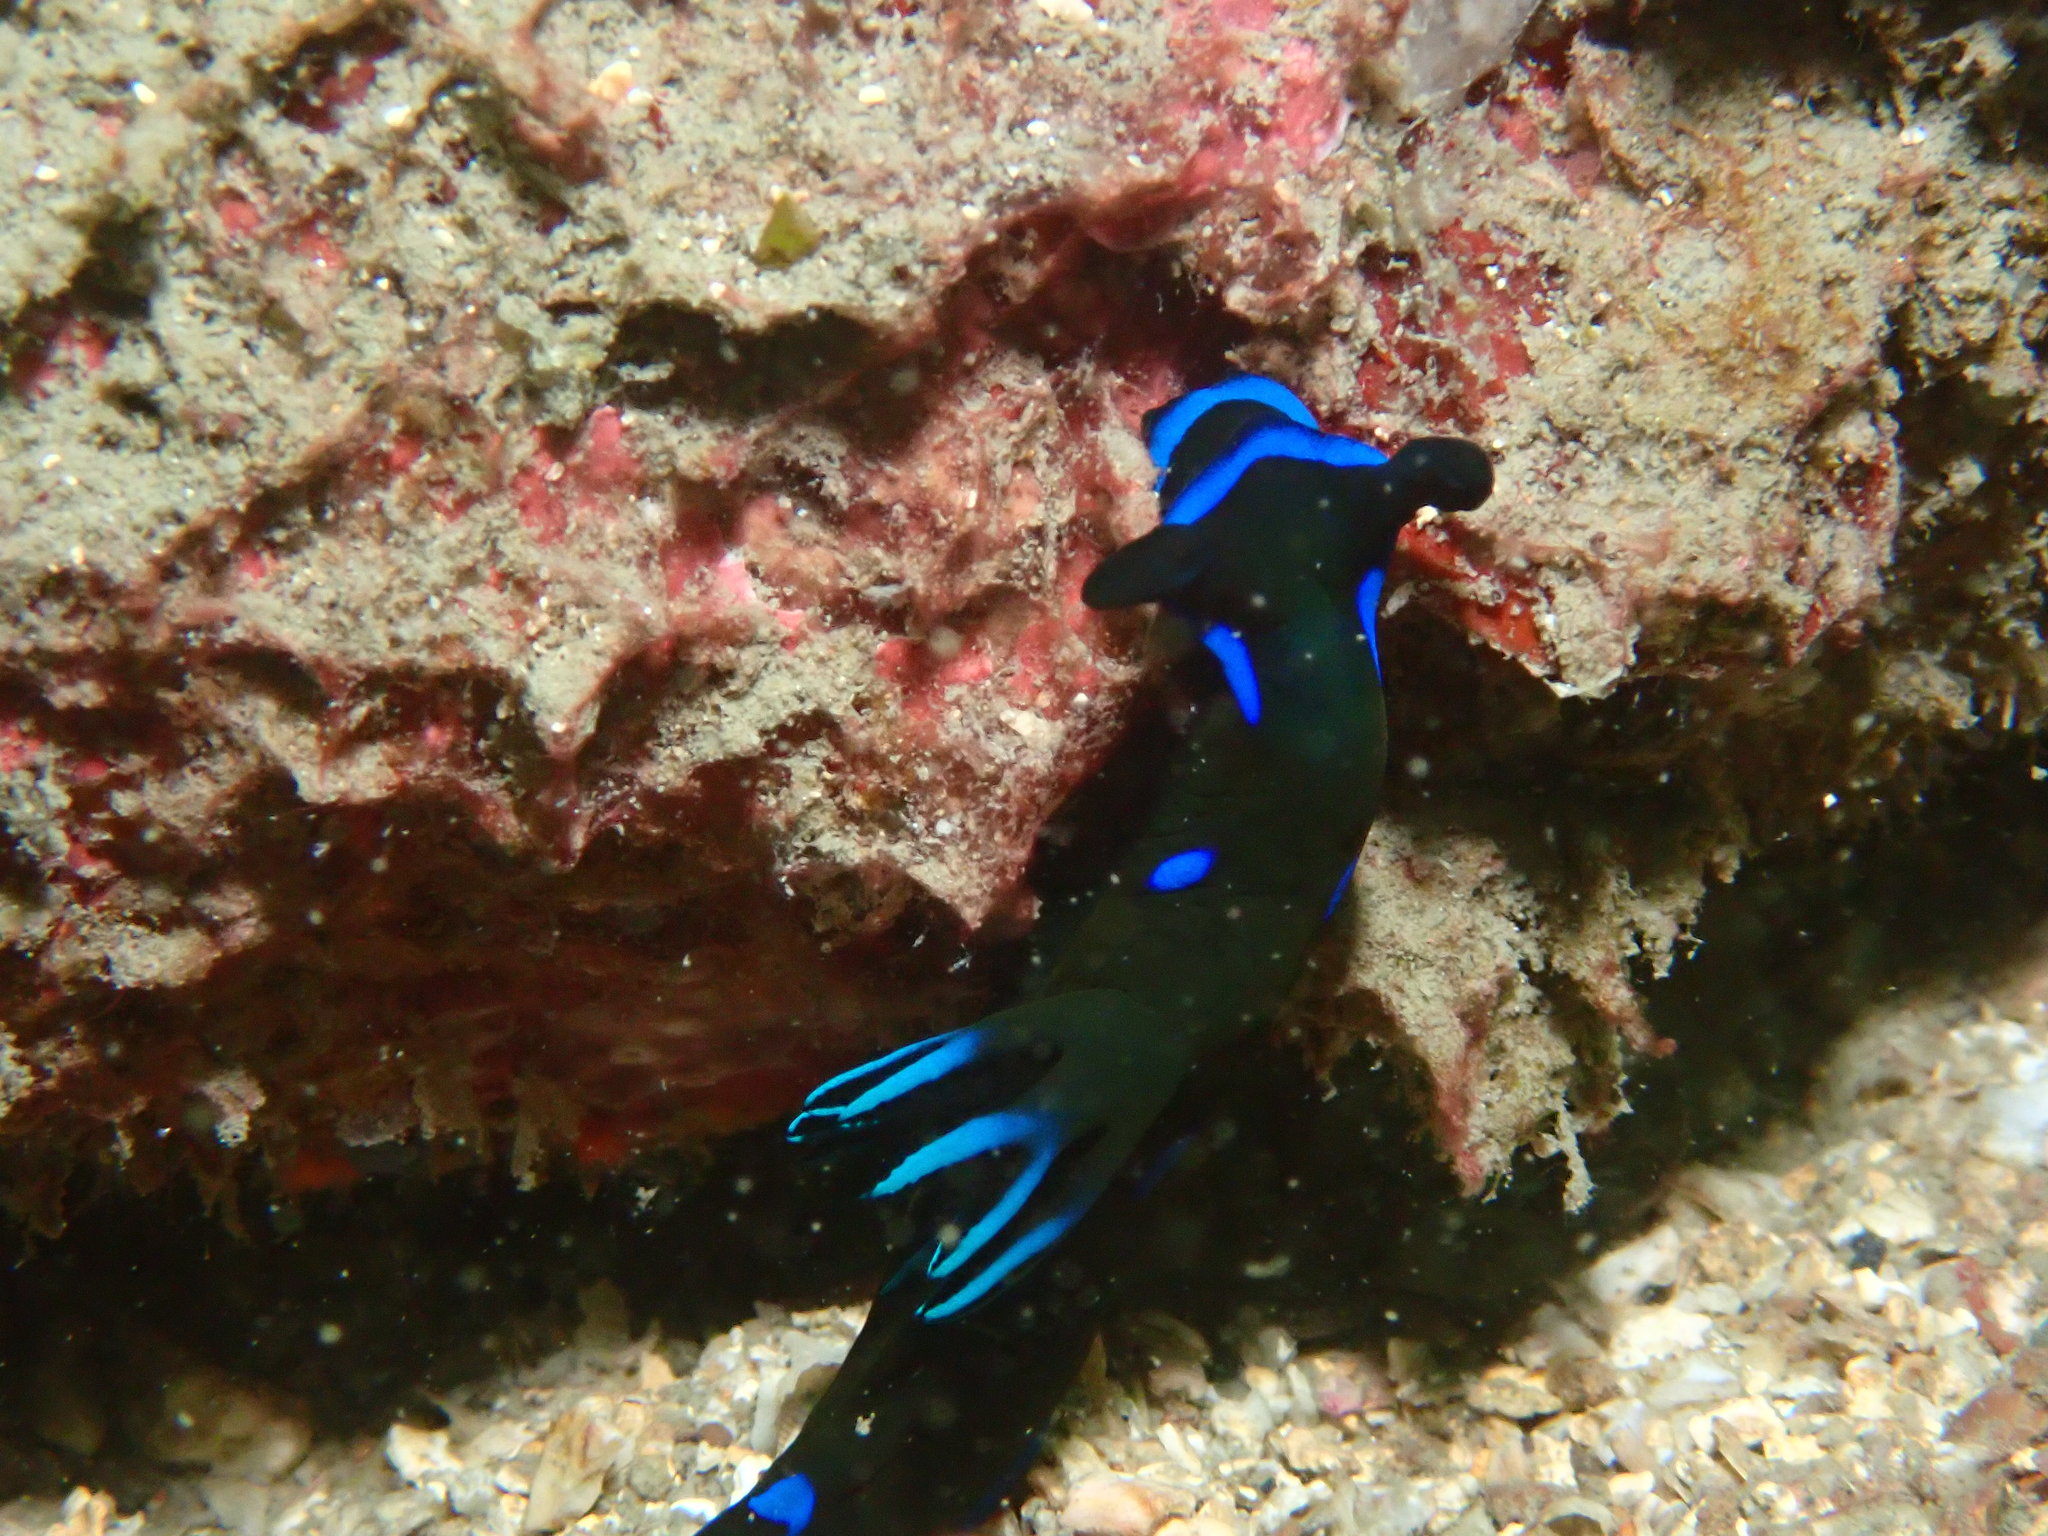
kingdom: Animalia
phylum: Mollusca
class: Gastropoda
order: Nudibranchia
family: Polyceridae
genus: Tambja
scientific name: Tambja morosa
